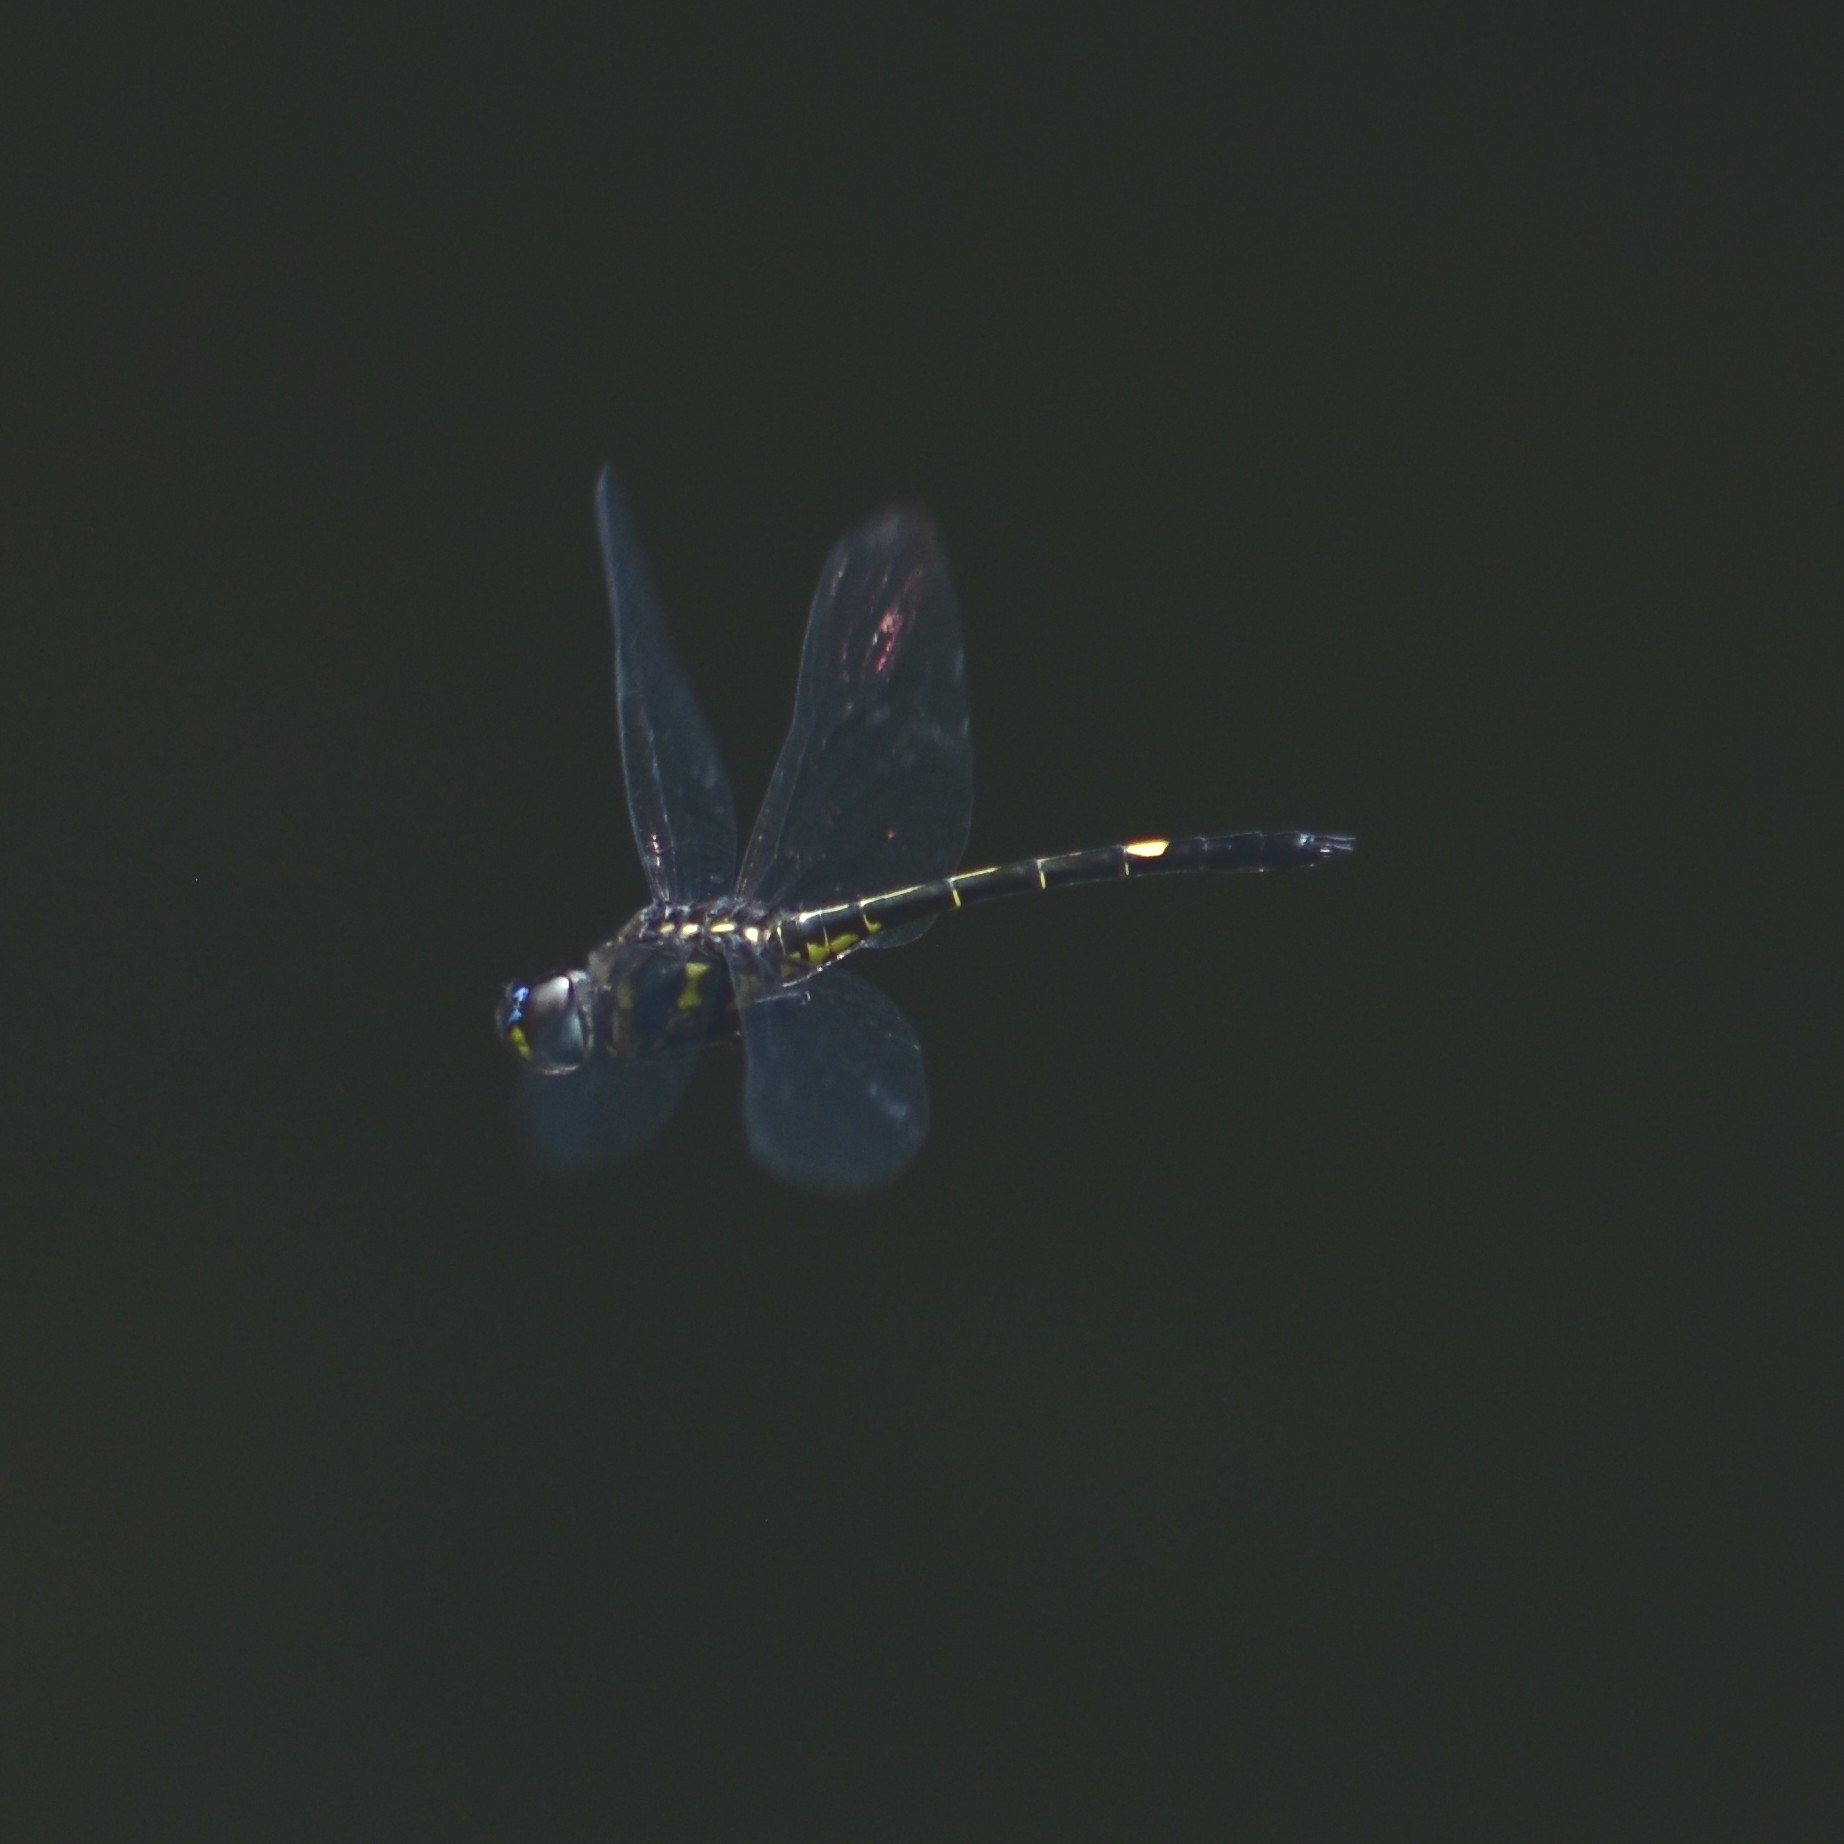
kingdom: Animalia
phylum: Arthropoda
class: Insecta
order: Odonata
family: Libellulidae
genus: Zygonyx
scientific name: Zygonyx iris
